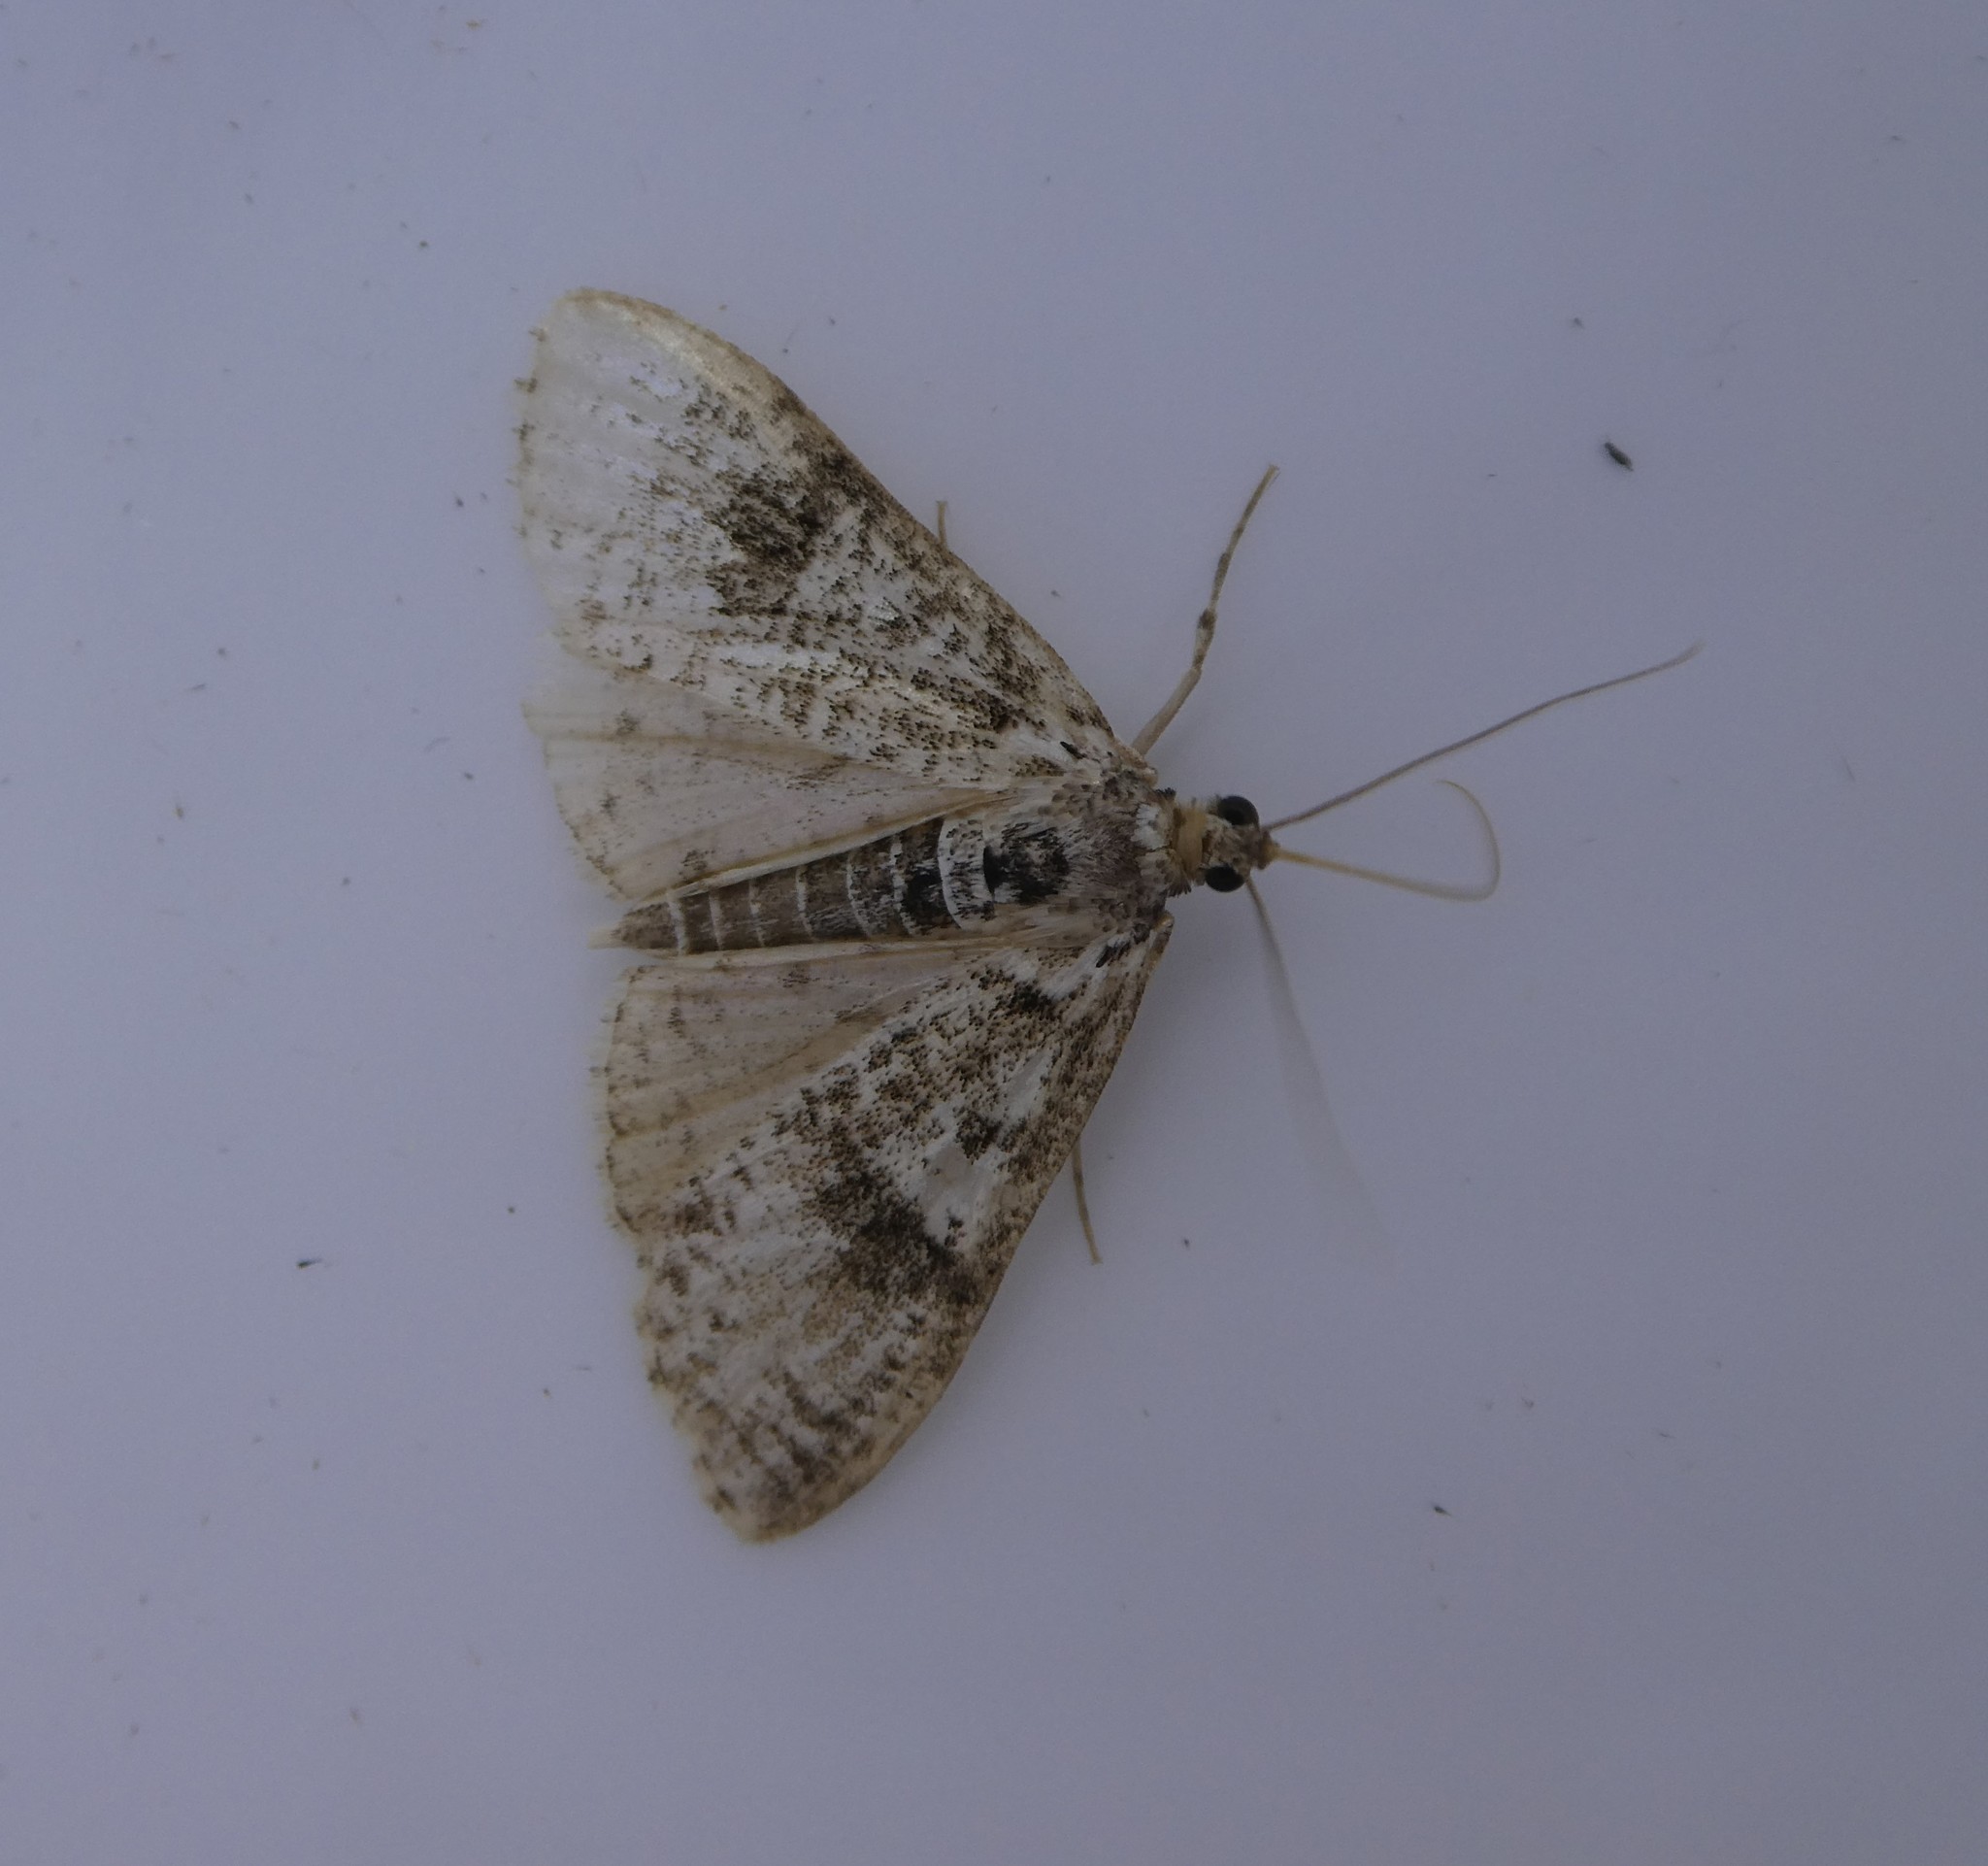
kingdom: Animalia
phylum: Arthropoda
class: Insecta
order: Lepidoptera
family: Crambidae
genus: Palpita
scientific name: Palpita magniferalis
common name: Splendid palpita moth
